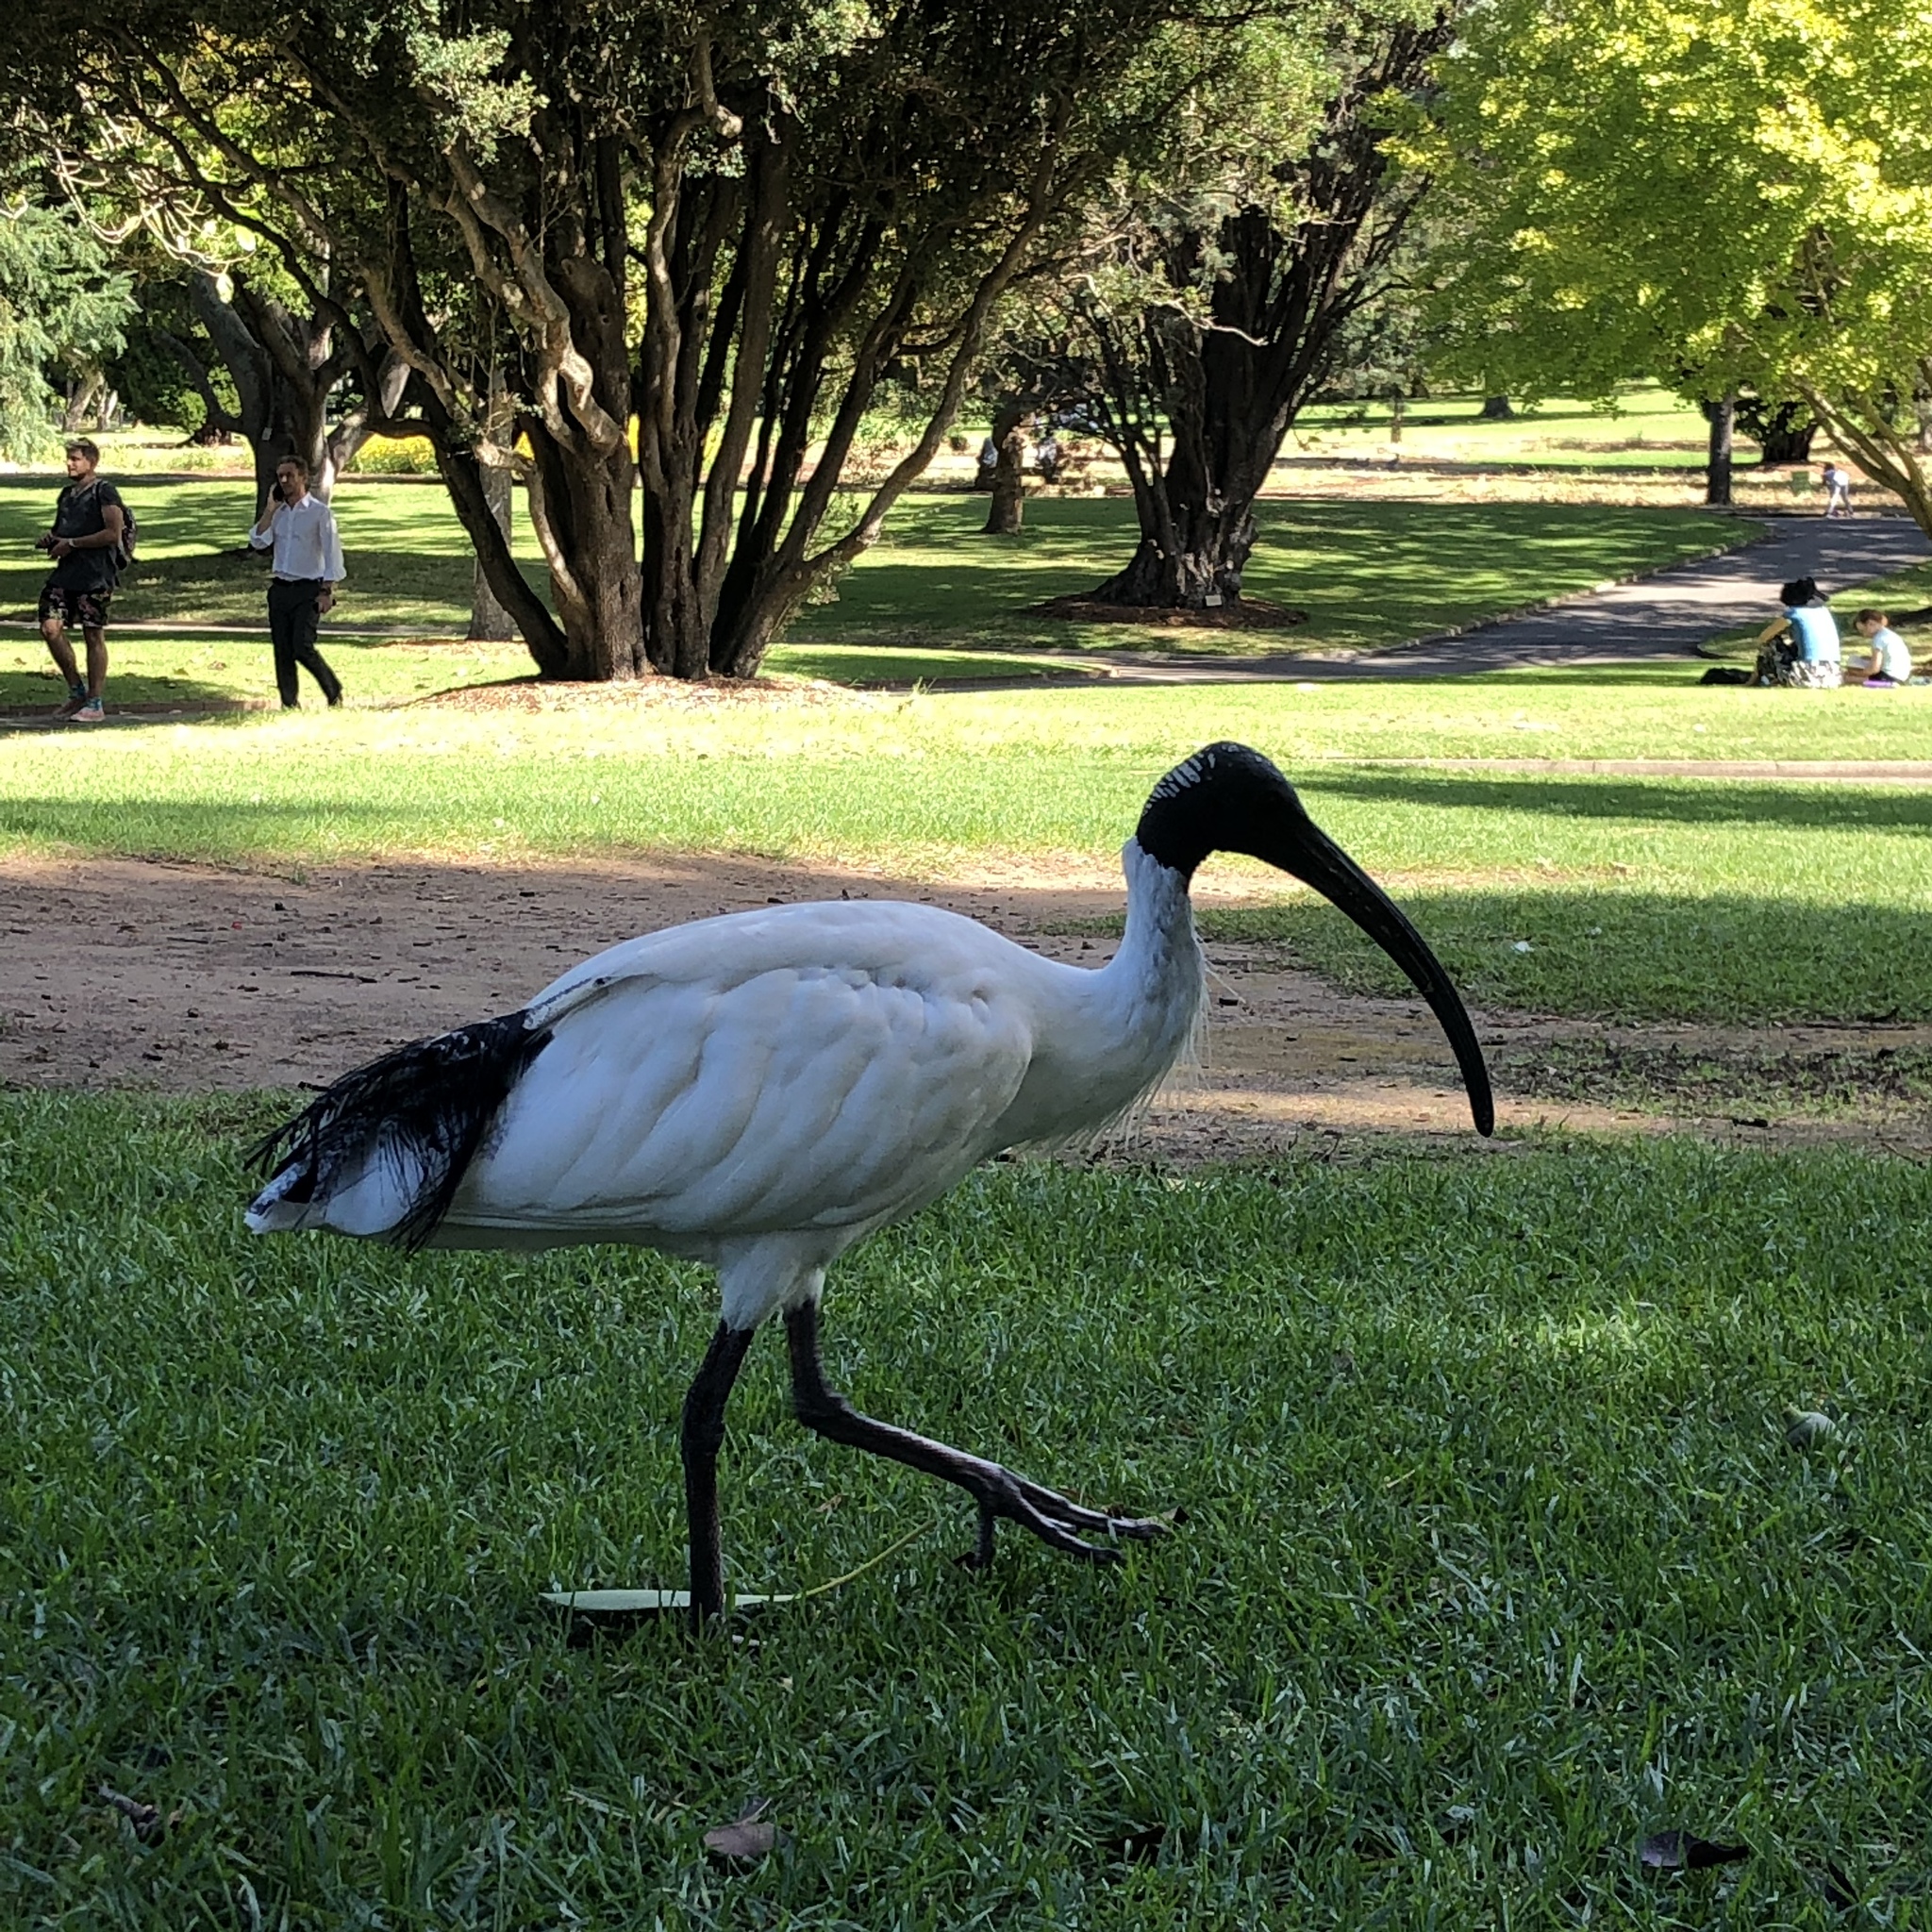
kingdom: Animalia
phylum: Chordata
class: Aves
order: Pelecaniformes
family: Threskiornithidae
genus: Threskiornis
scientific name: Threskiornis molucca
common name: Australian white ibis
